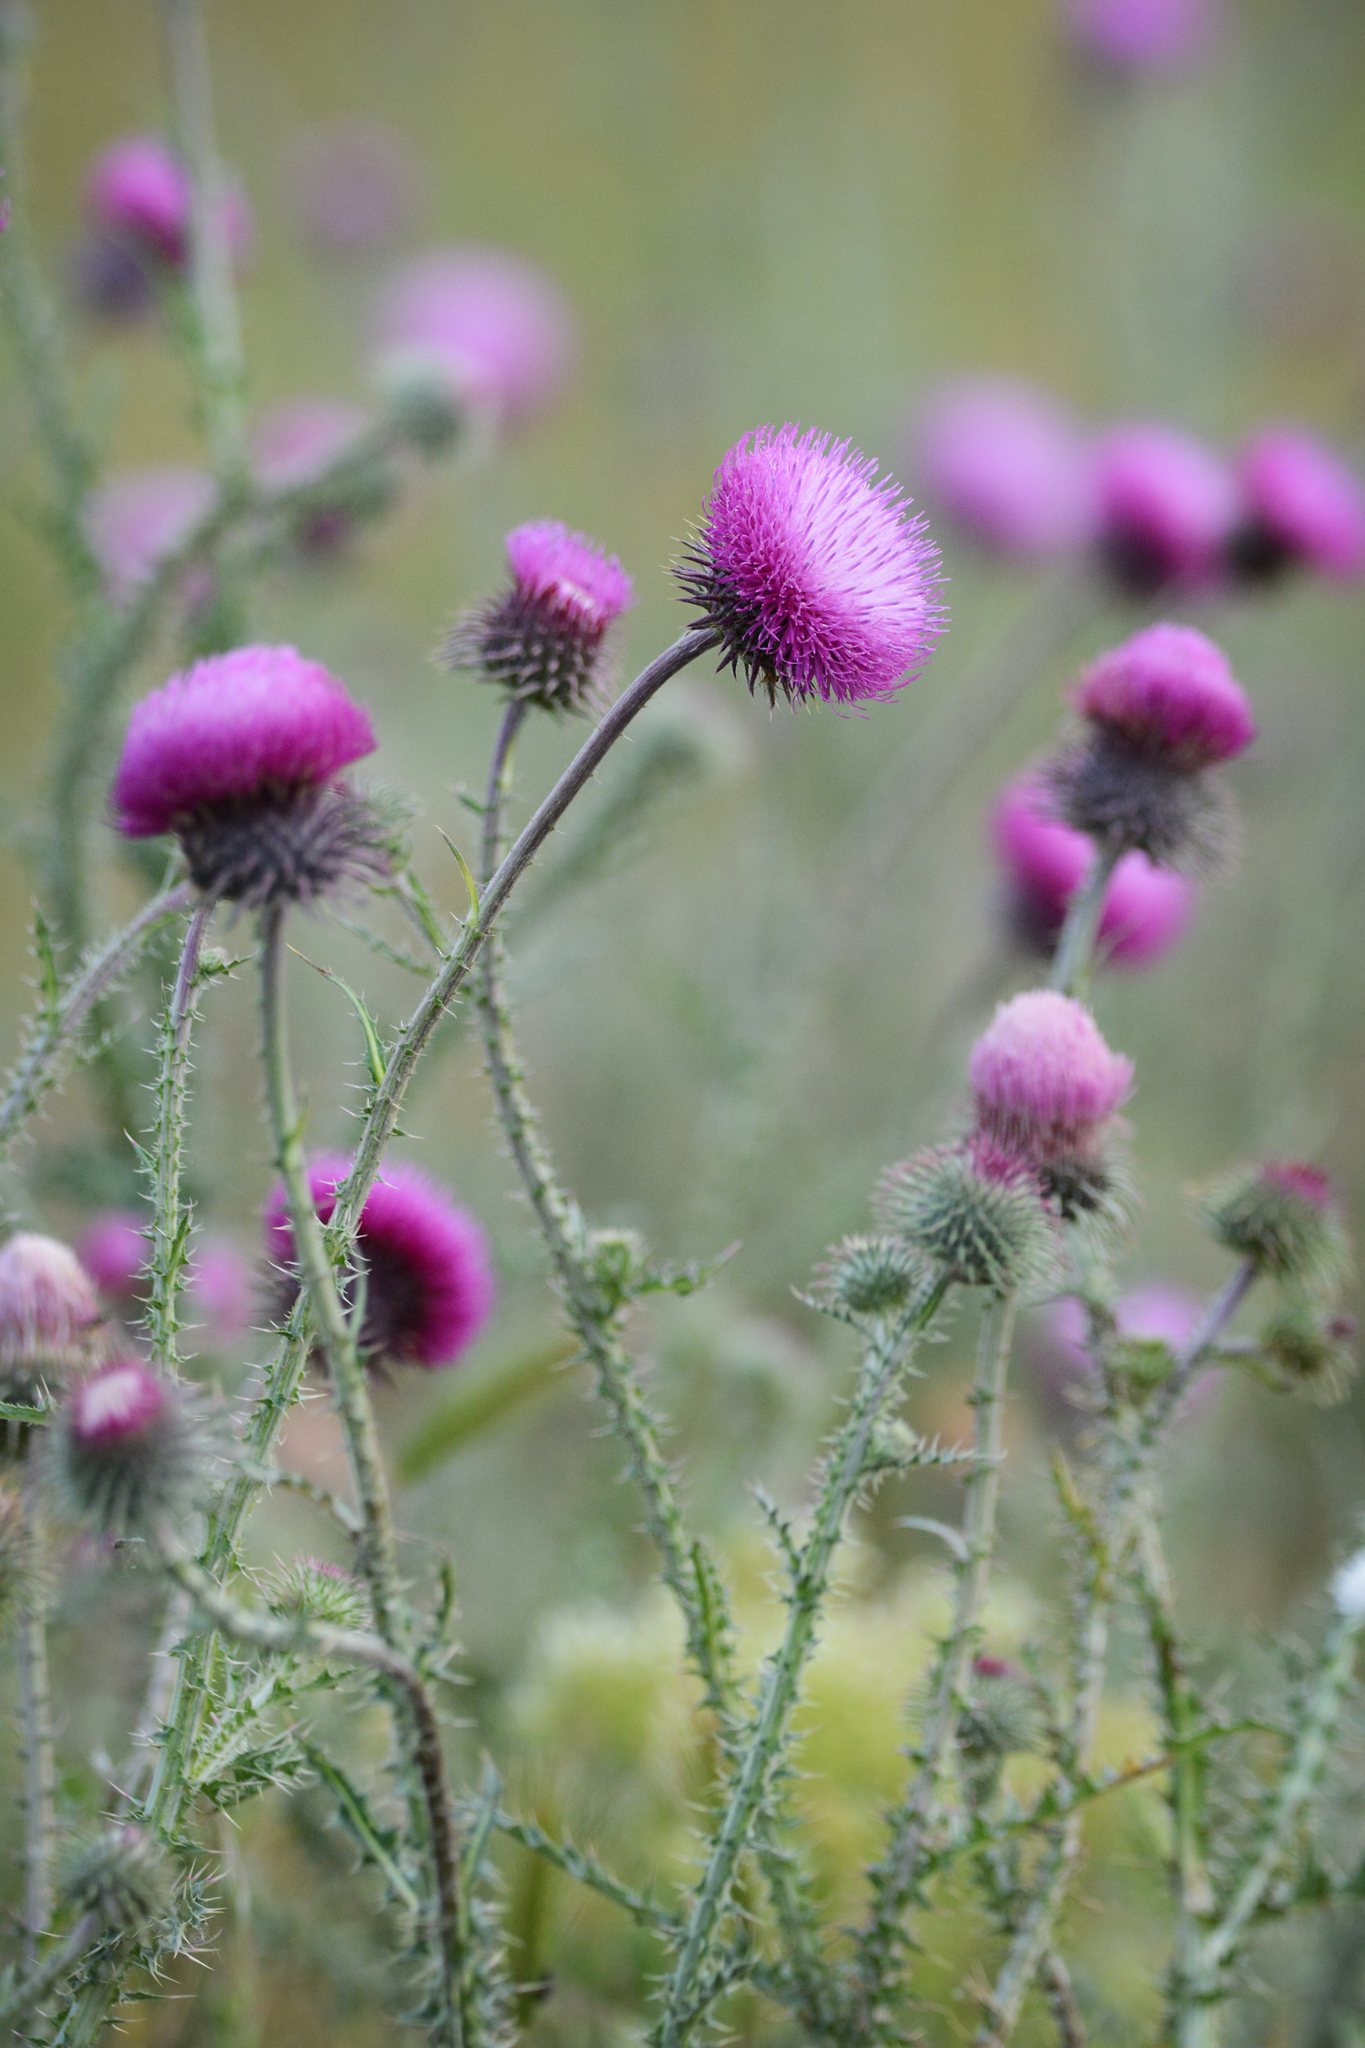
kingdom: Plantae
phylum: Tracheophyta
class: Magnoliopsida
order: Asterales
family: Asteraceae
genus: Carduus
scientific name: Carduus uncinatus
